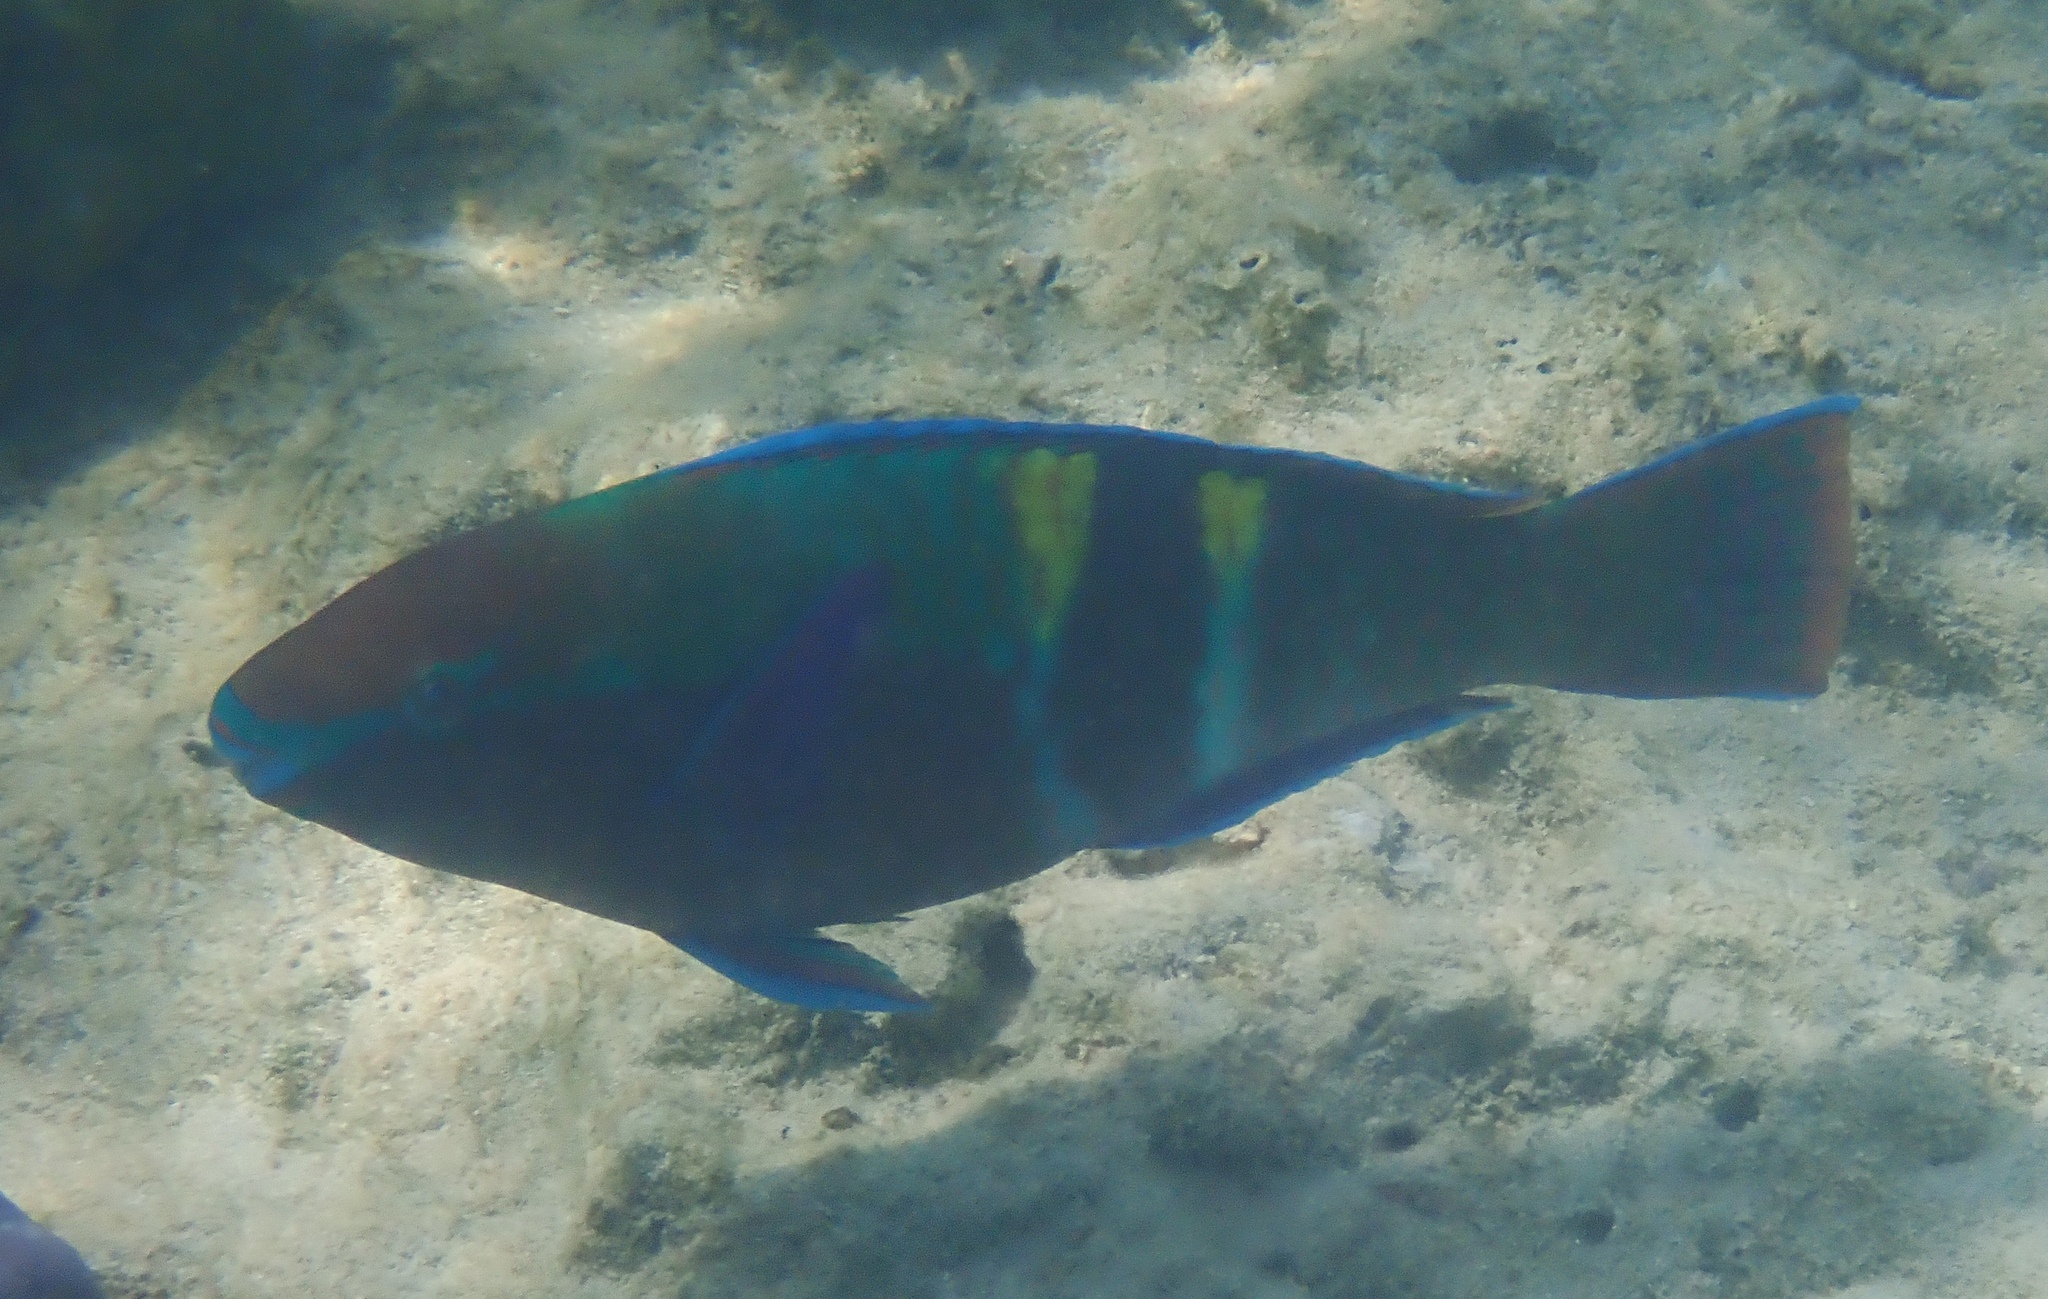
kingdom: Animalia
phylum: Chordata
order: Perciformes
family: Scaridae
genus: Scarus
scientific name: Scarus schlegeli
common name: Schlegel's parrotfish
